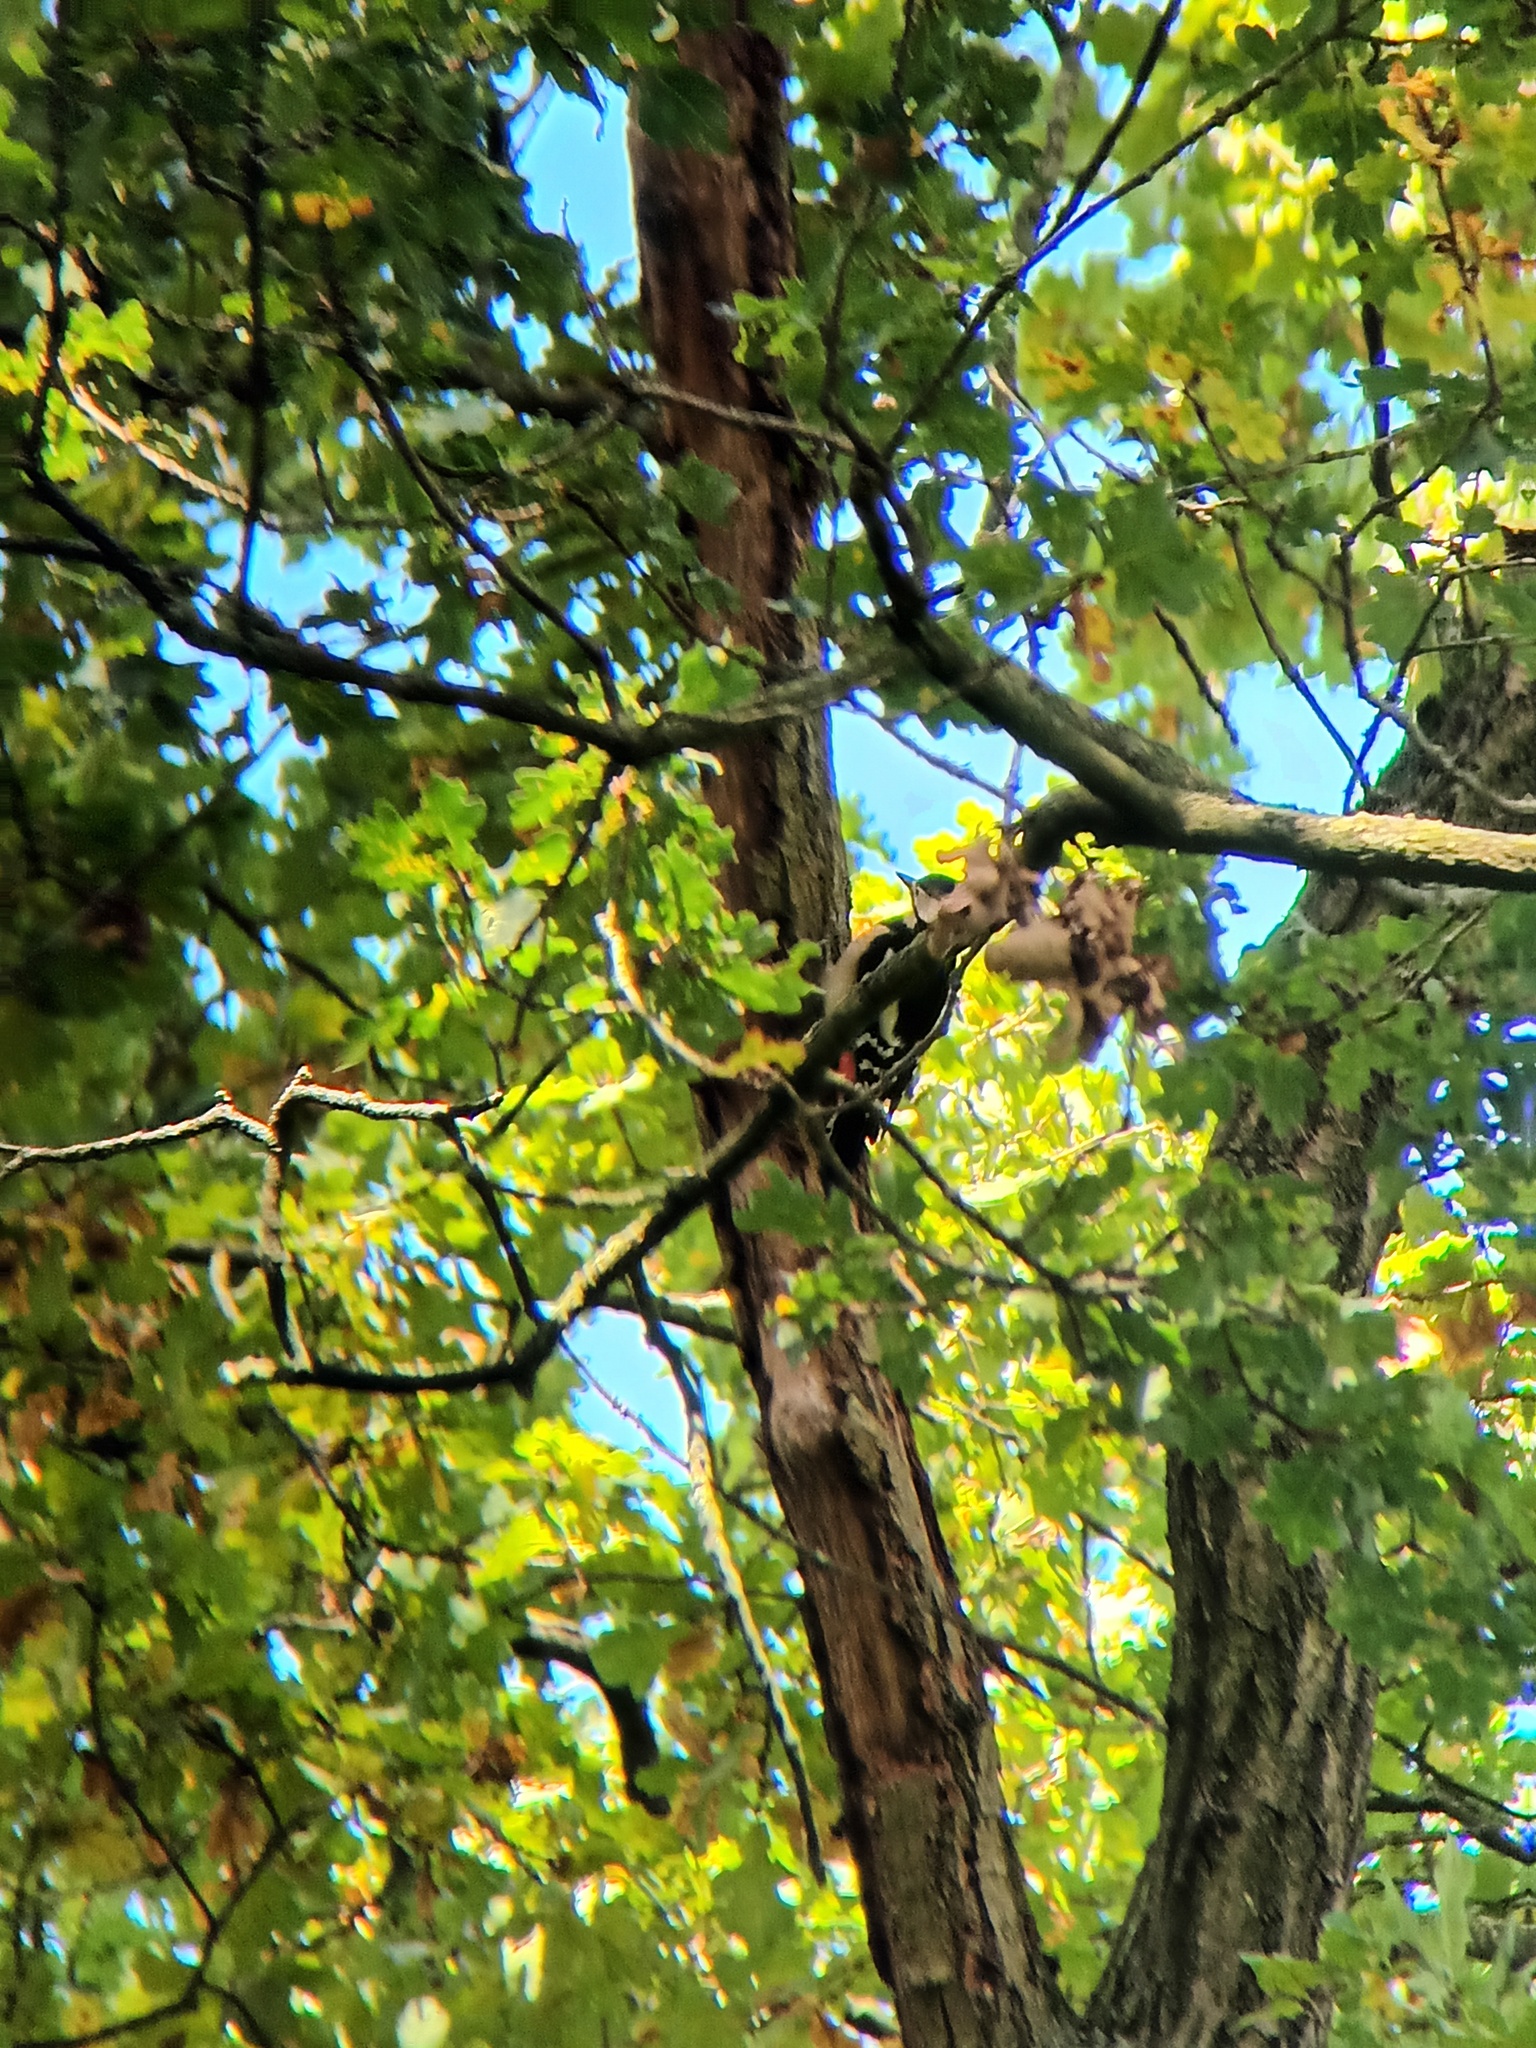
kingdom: Animalia
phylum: Chordata
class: Aves
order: Piciformes
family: Picidae
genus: Dendrocopos
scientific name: Dendrocopos major
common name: Great spotted woodpecker
